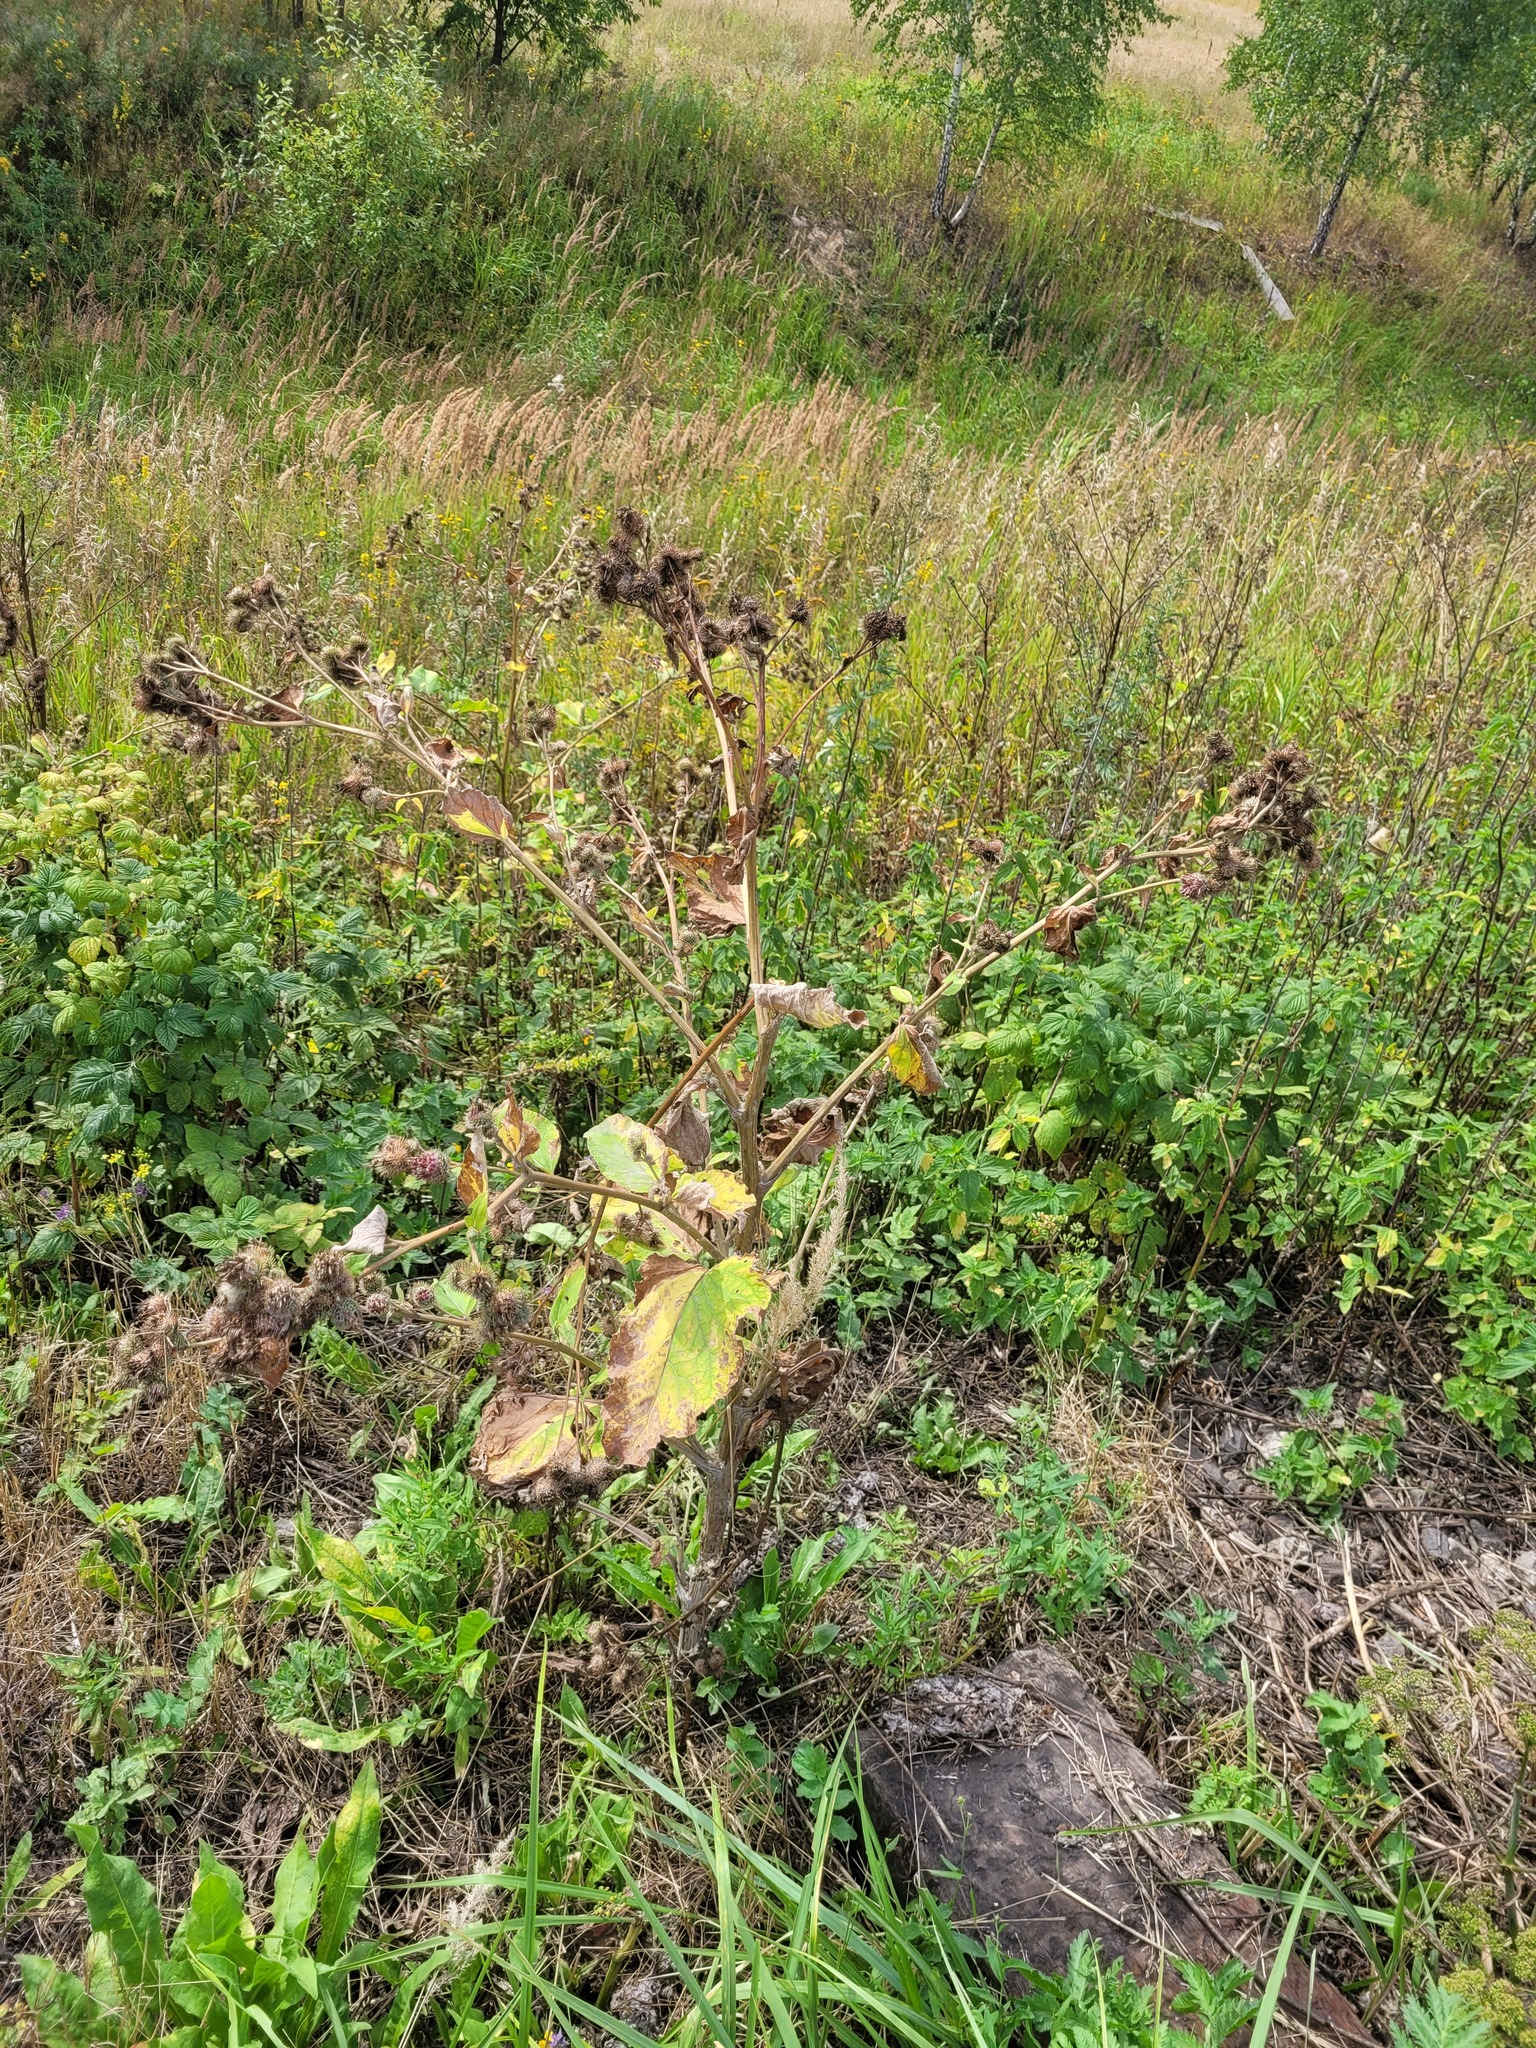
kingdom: Plantae
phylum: Tracheophyta
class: Magnoliopsida
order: Asterales
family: Asteraceae
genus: Arctium
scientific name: Arctium tomentosum
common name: Woolly burdock
